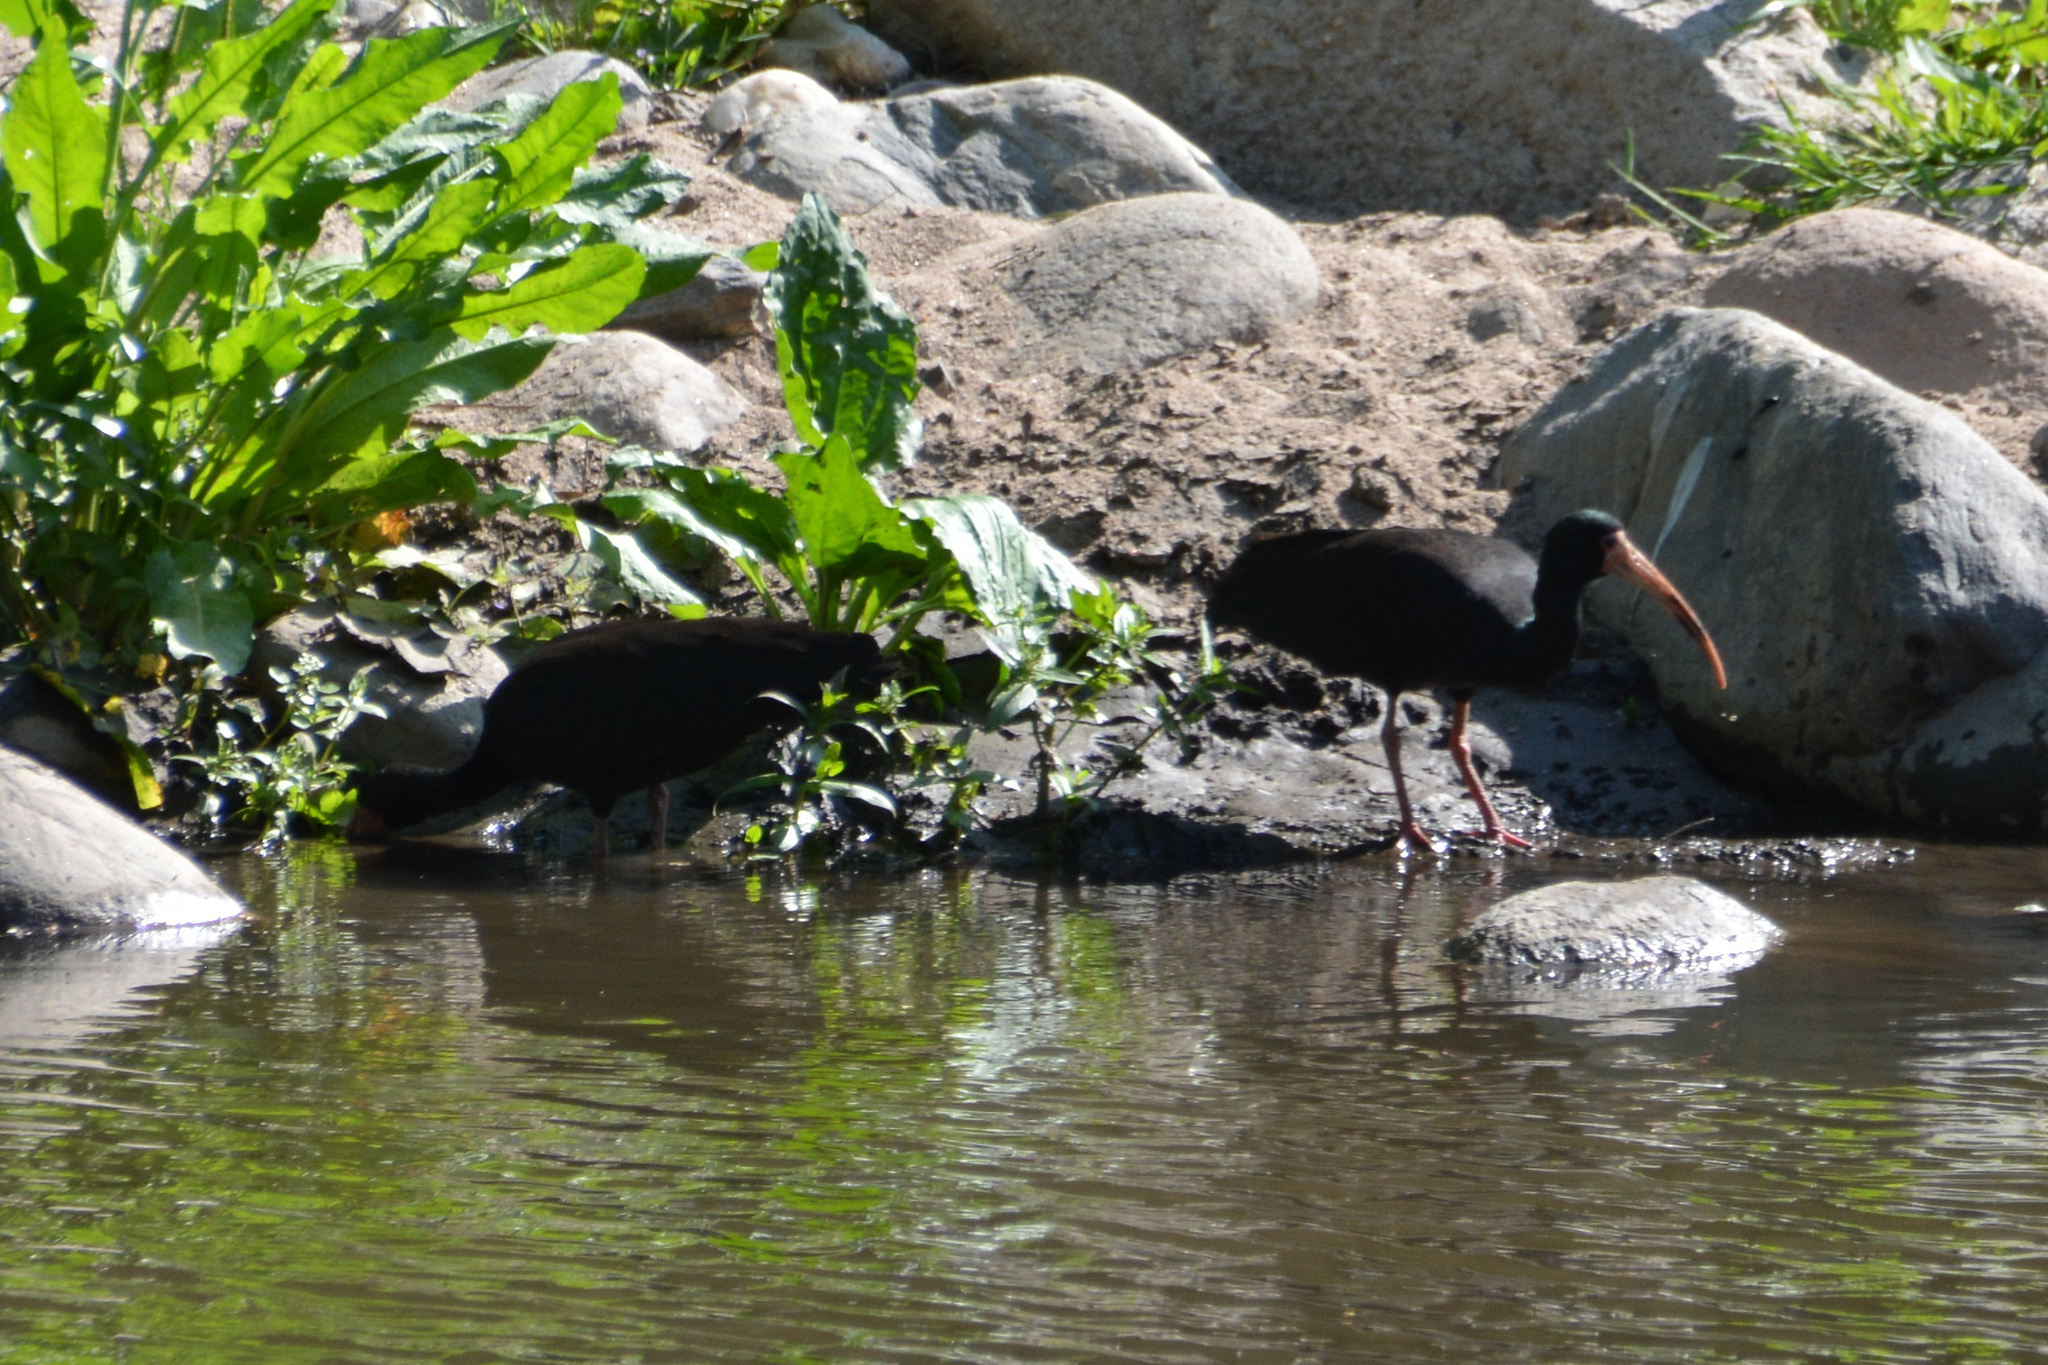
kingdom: Animalia
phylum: Chordata
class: Aves
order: Pelecaniformes
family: Threskiornithidae
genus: Phimosus
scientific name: Phimosus infuscatus
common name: Bare-faced ibis
